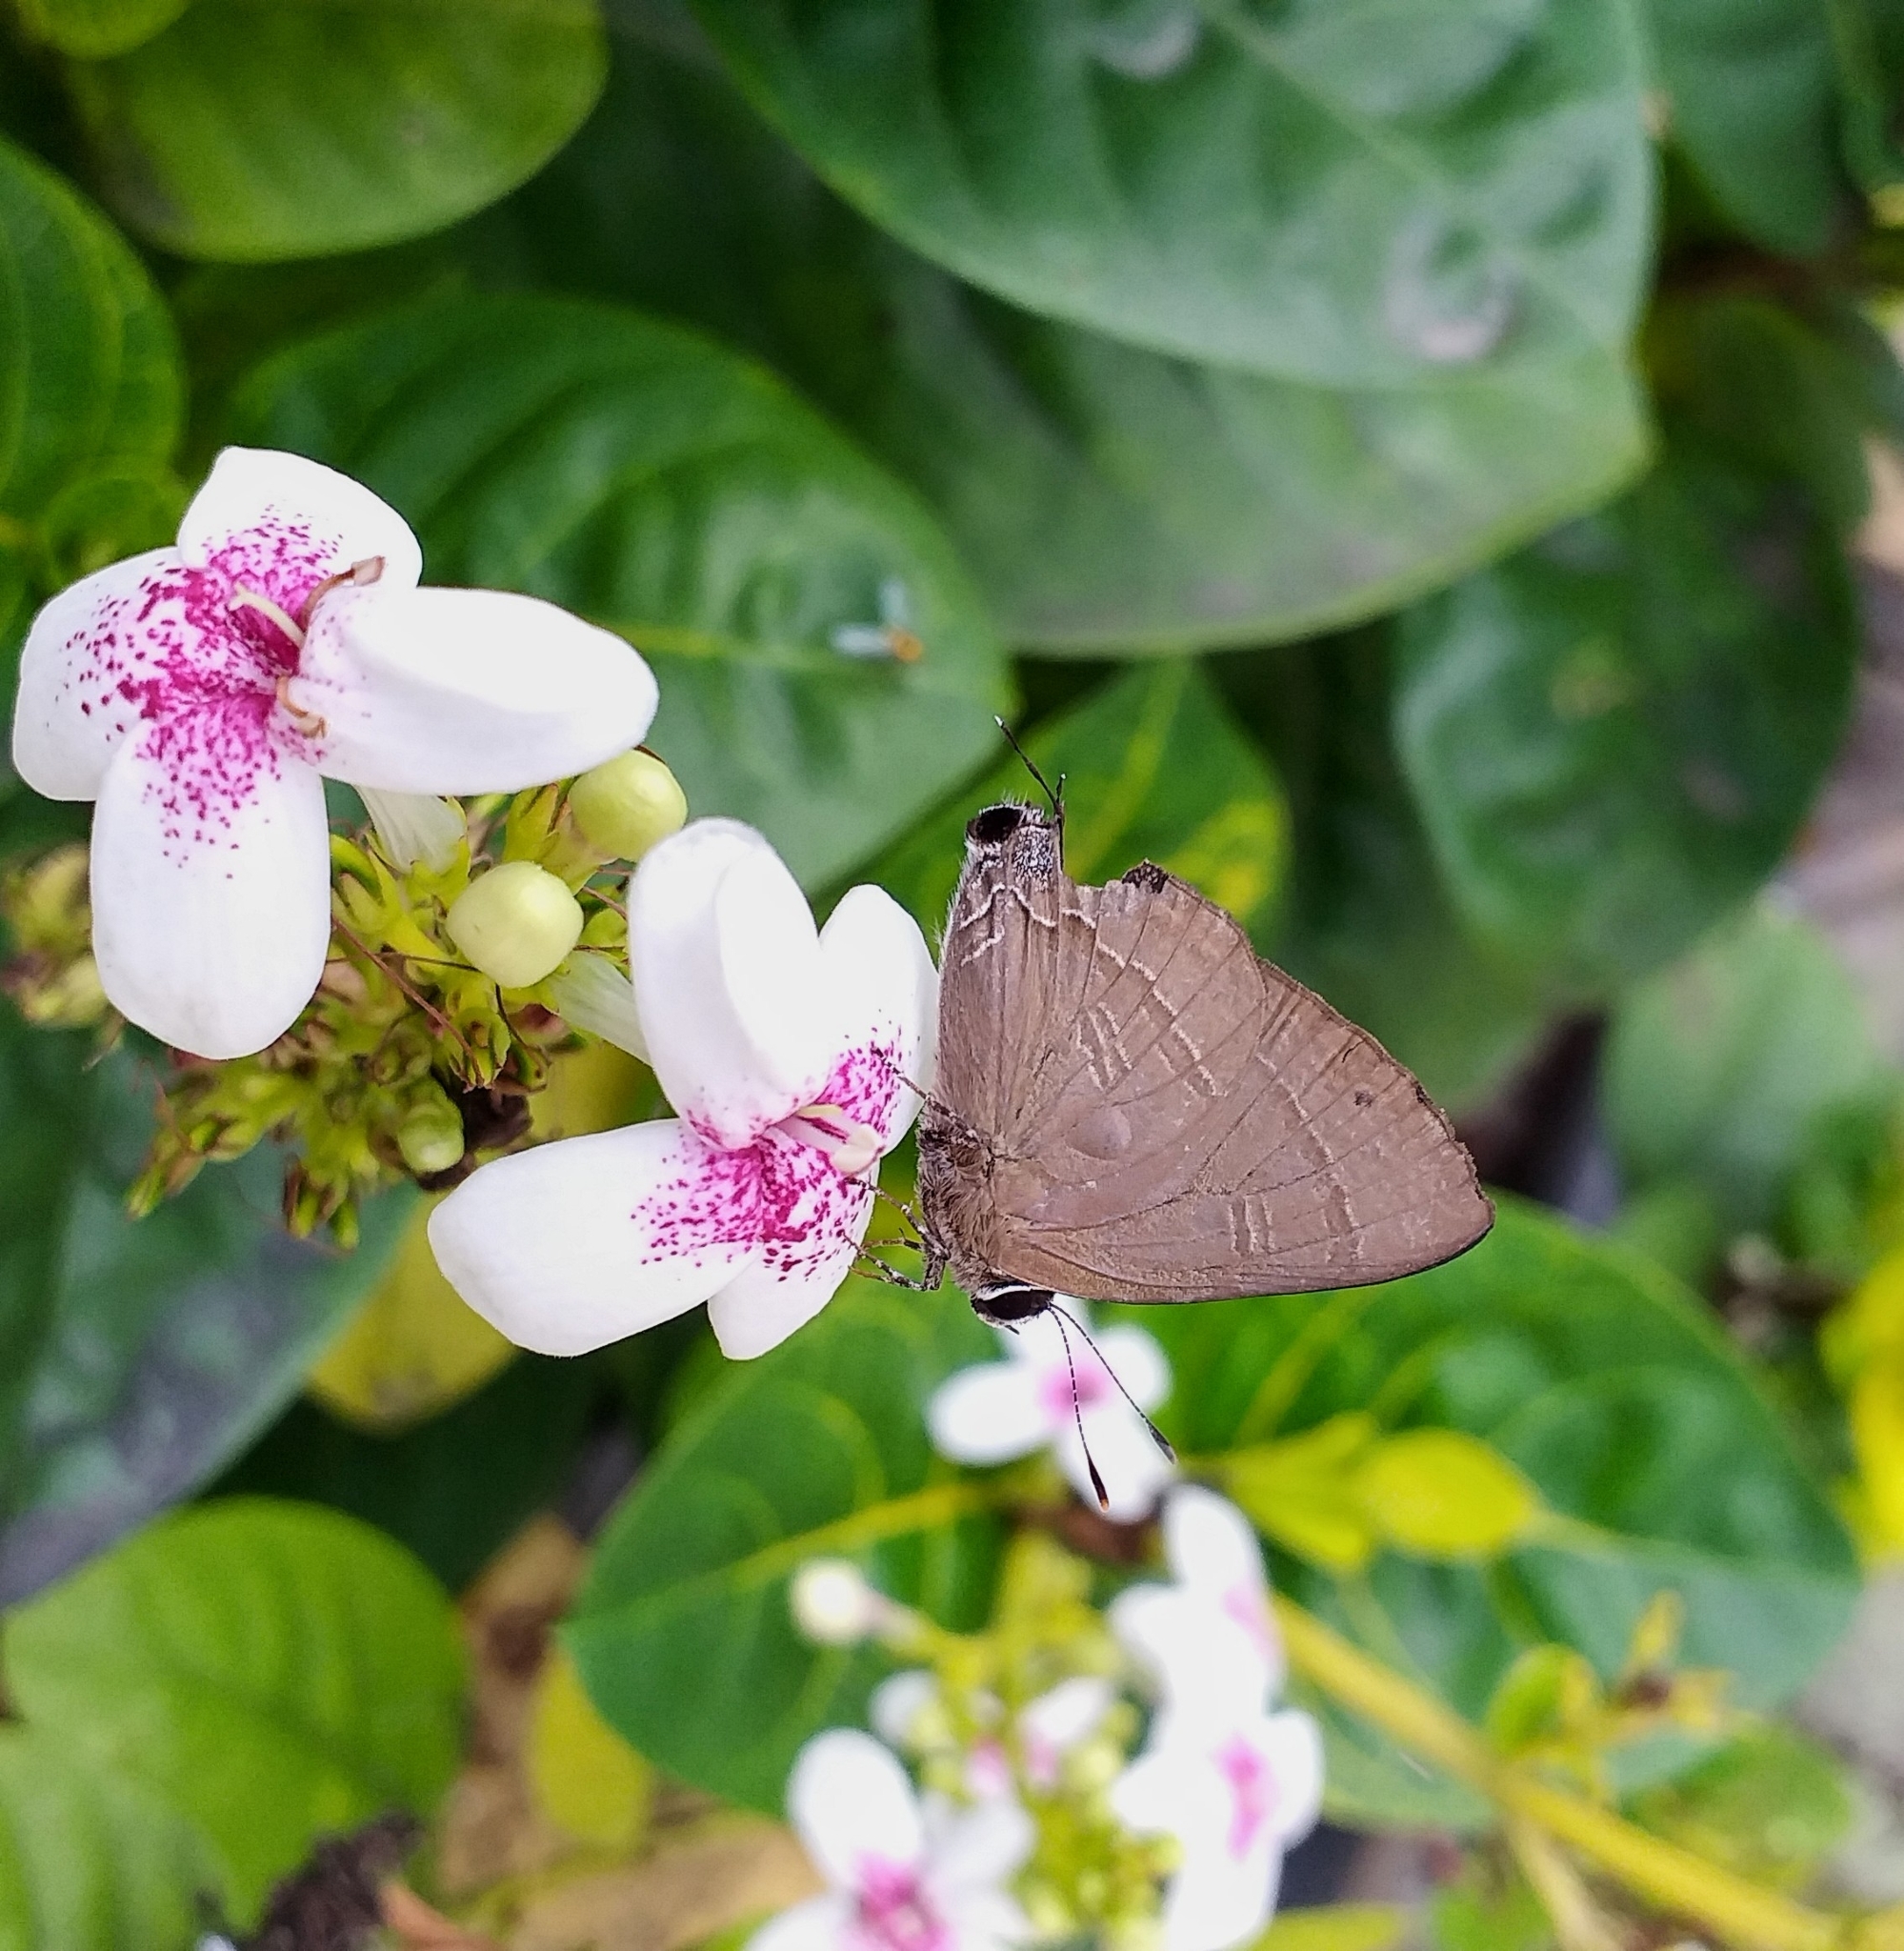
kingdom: Animalia
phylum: Arthropoda
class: Insecta
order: Lepidoptera
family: Lycaenidae
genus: Rapala
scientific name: Rapala manea
